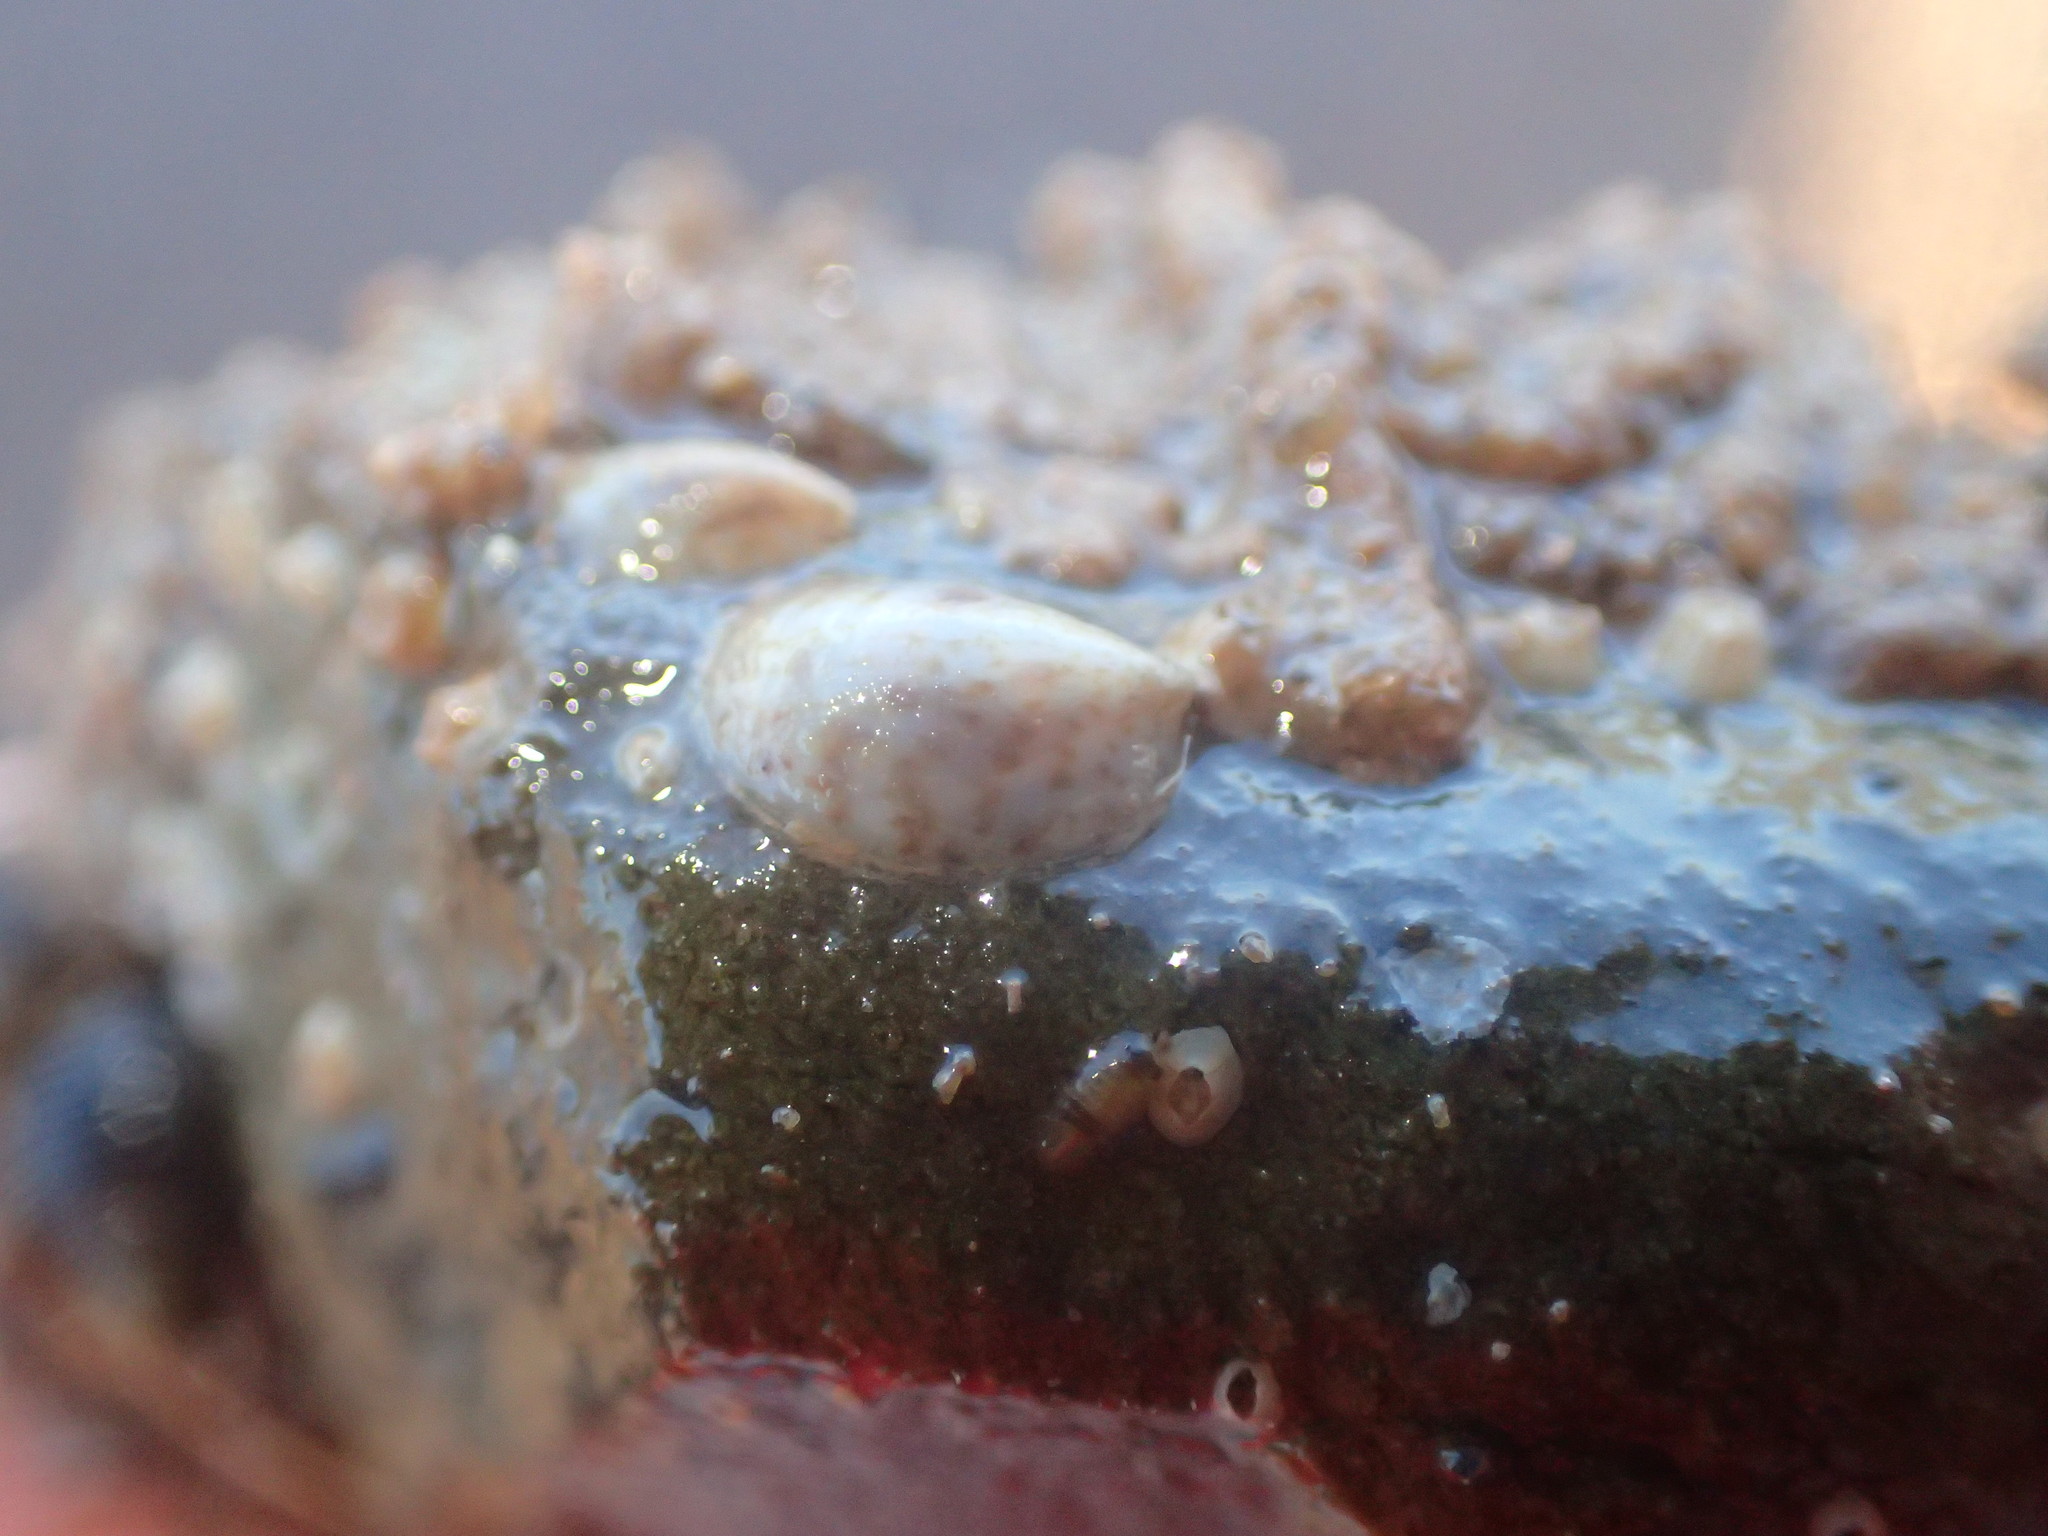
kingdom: Animalia
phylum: Mollusca
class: Gastropoda
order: Littorinimorpha
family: Calyptraeidae
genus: Crepidula
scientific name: Crepidula fornicata
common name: Slipper limpet
